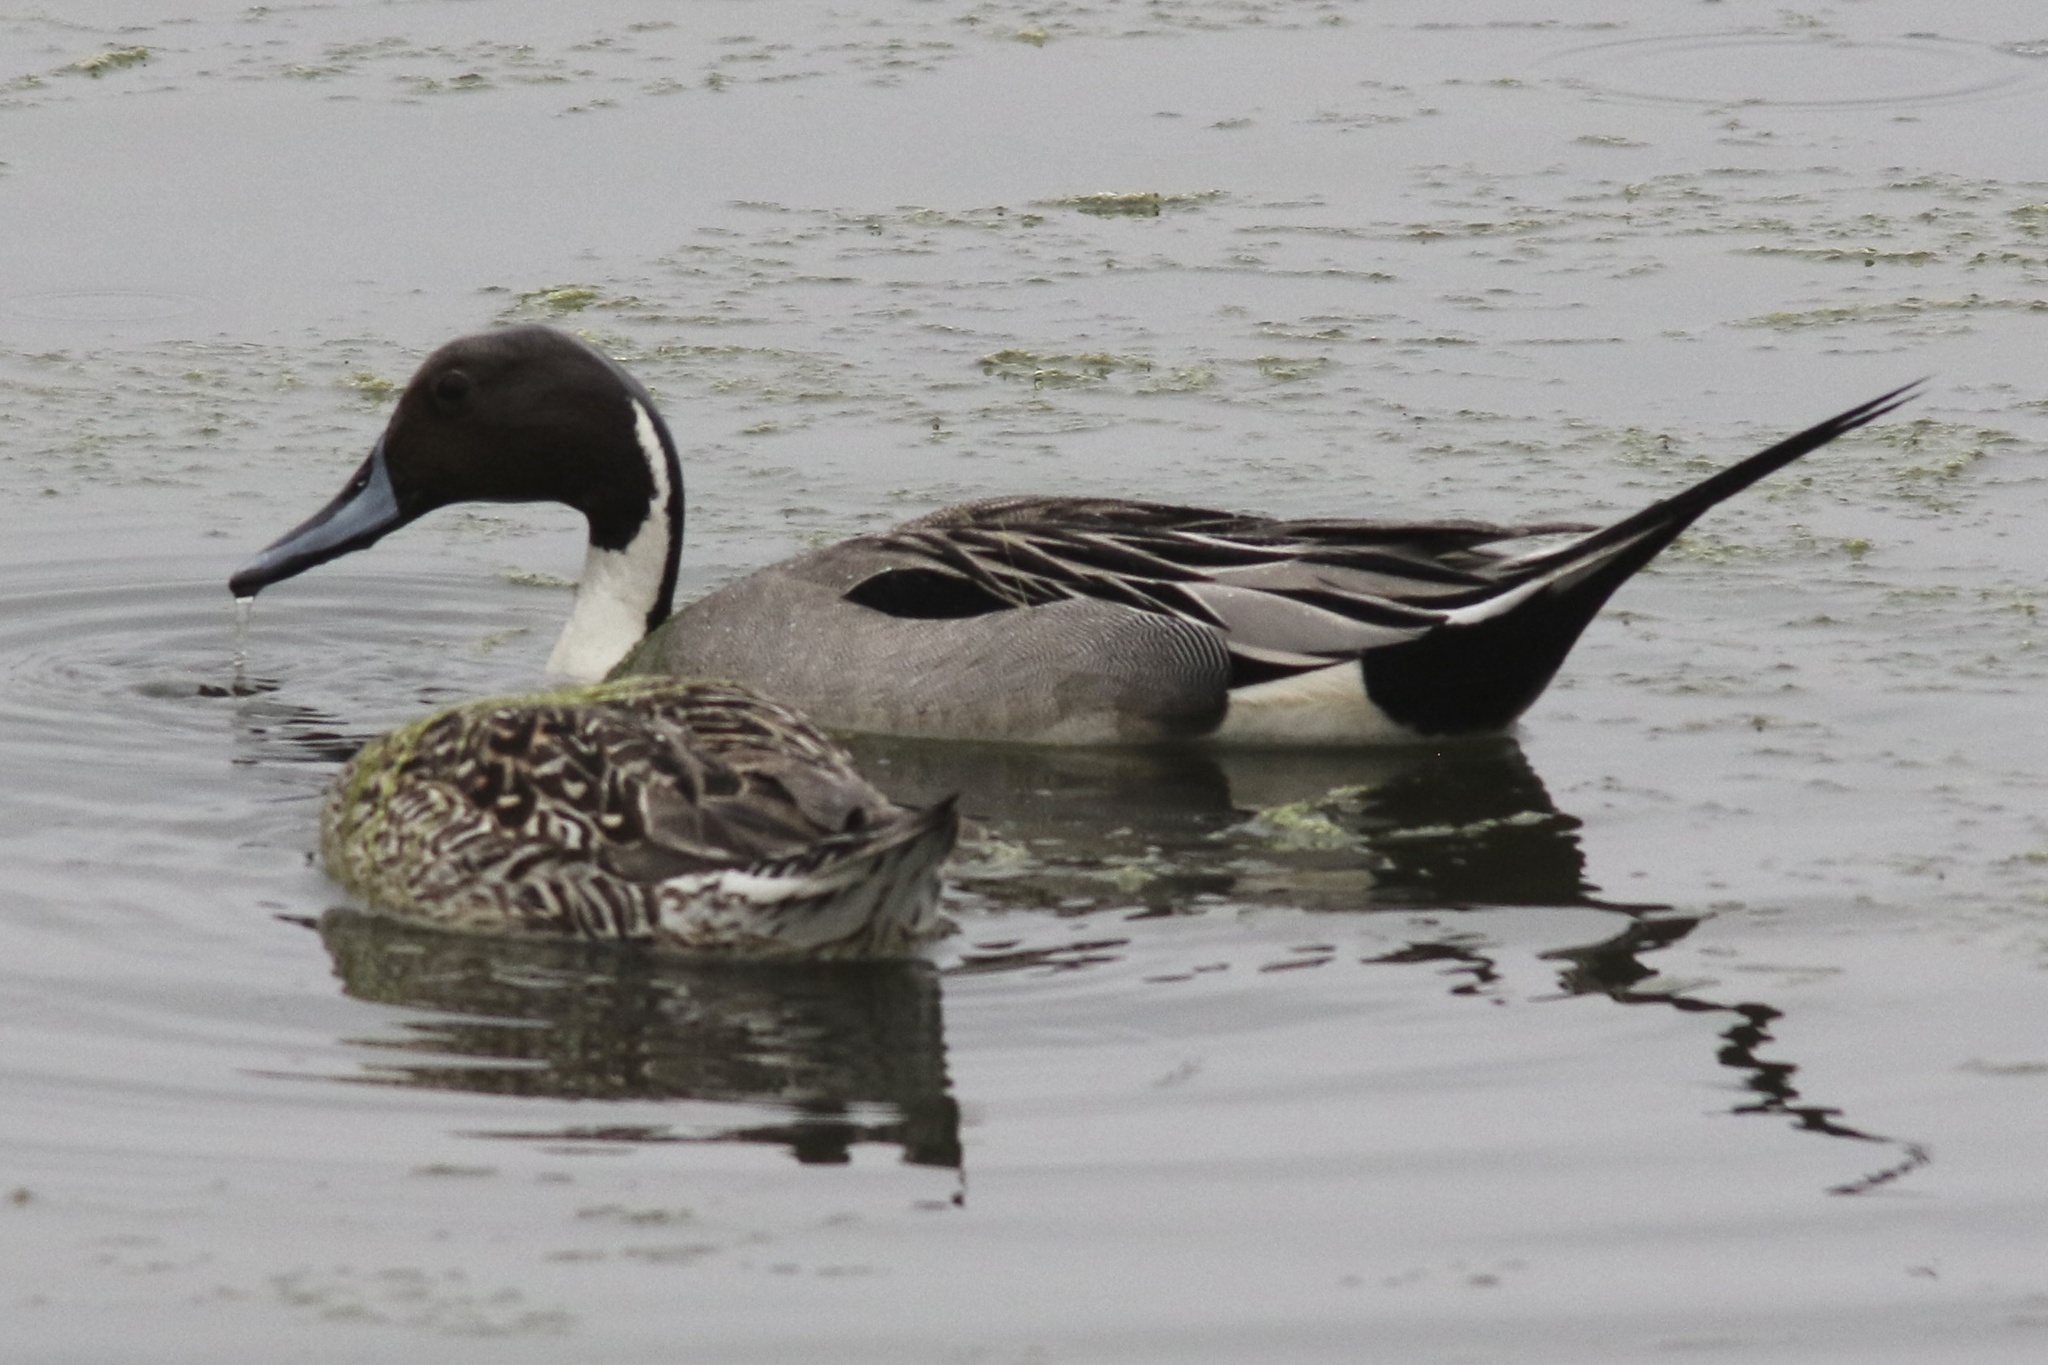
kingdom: Animalia
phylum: Chordata
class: Aves
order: Anseriformes
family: Anatidae
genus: Anas
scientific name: Anas acuta
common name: Northern pintail
